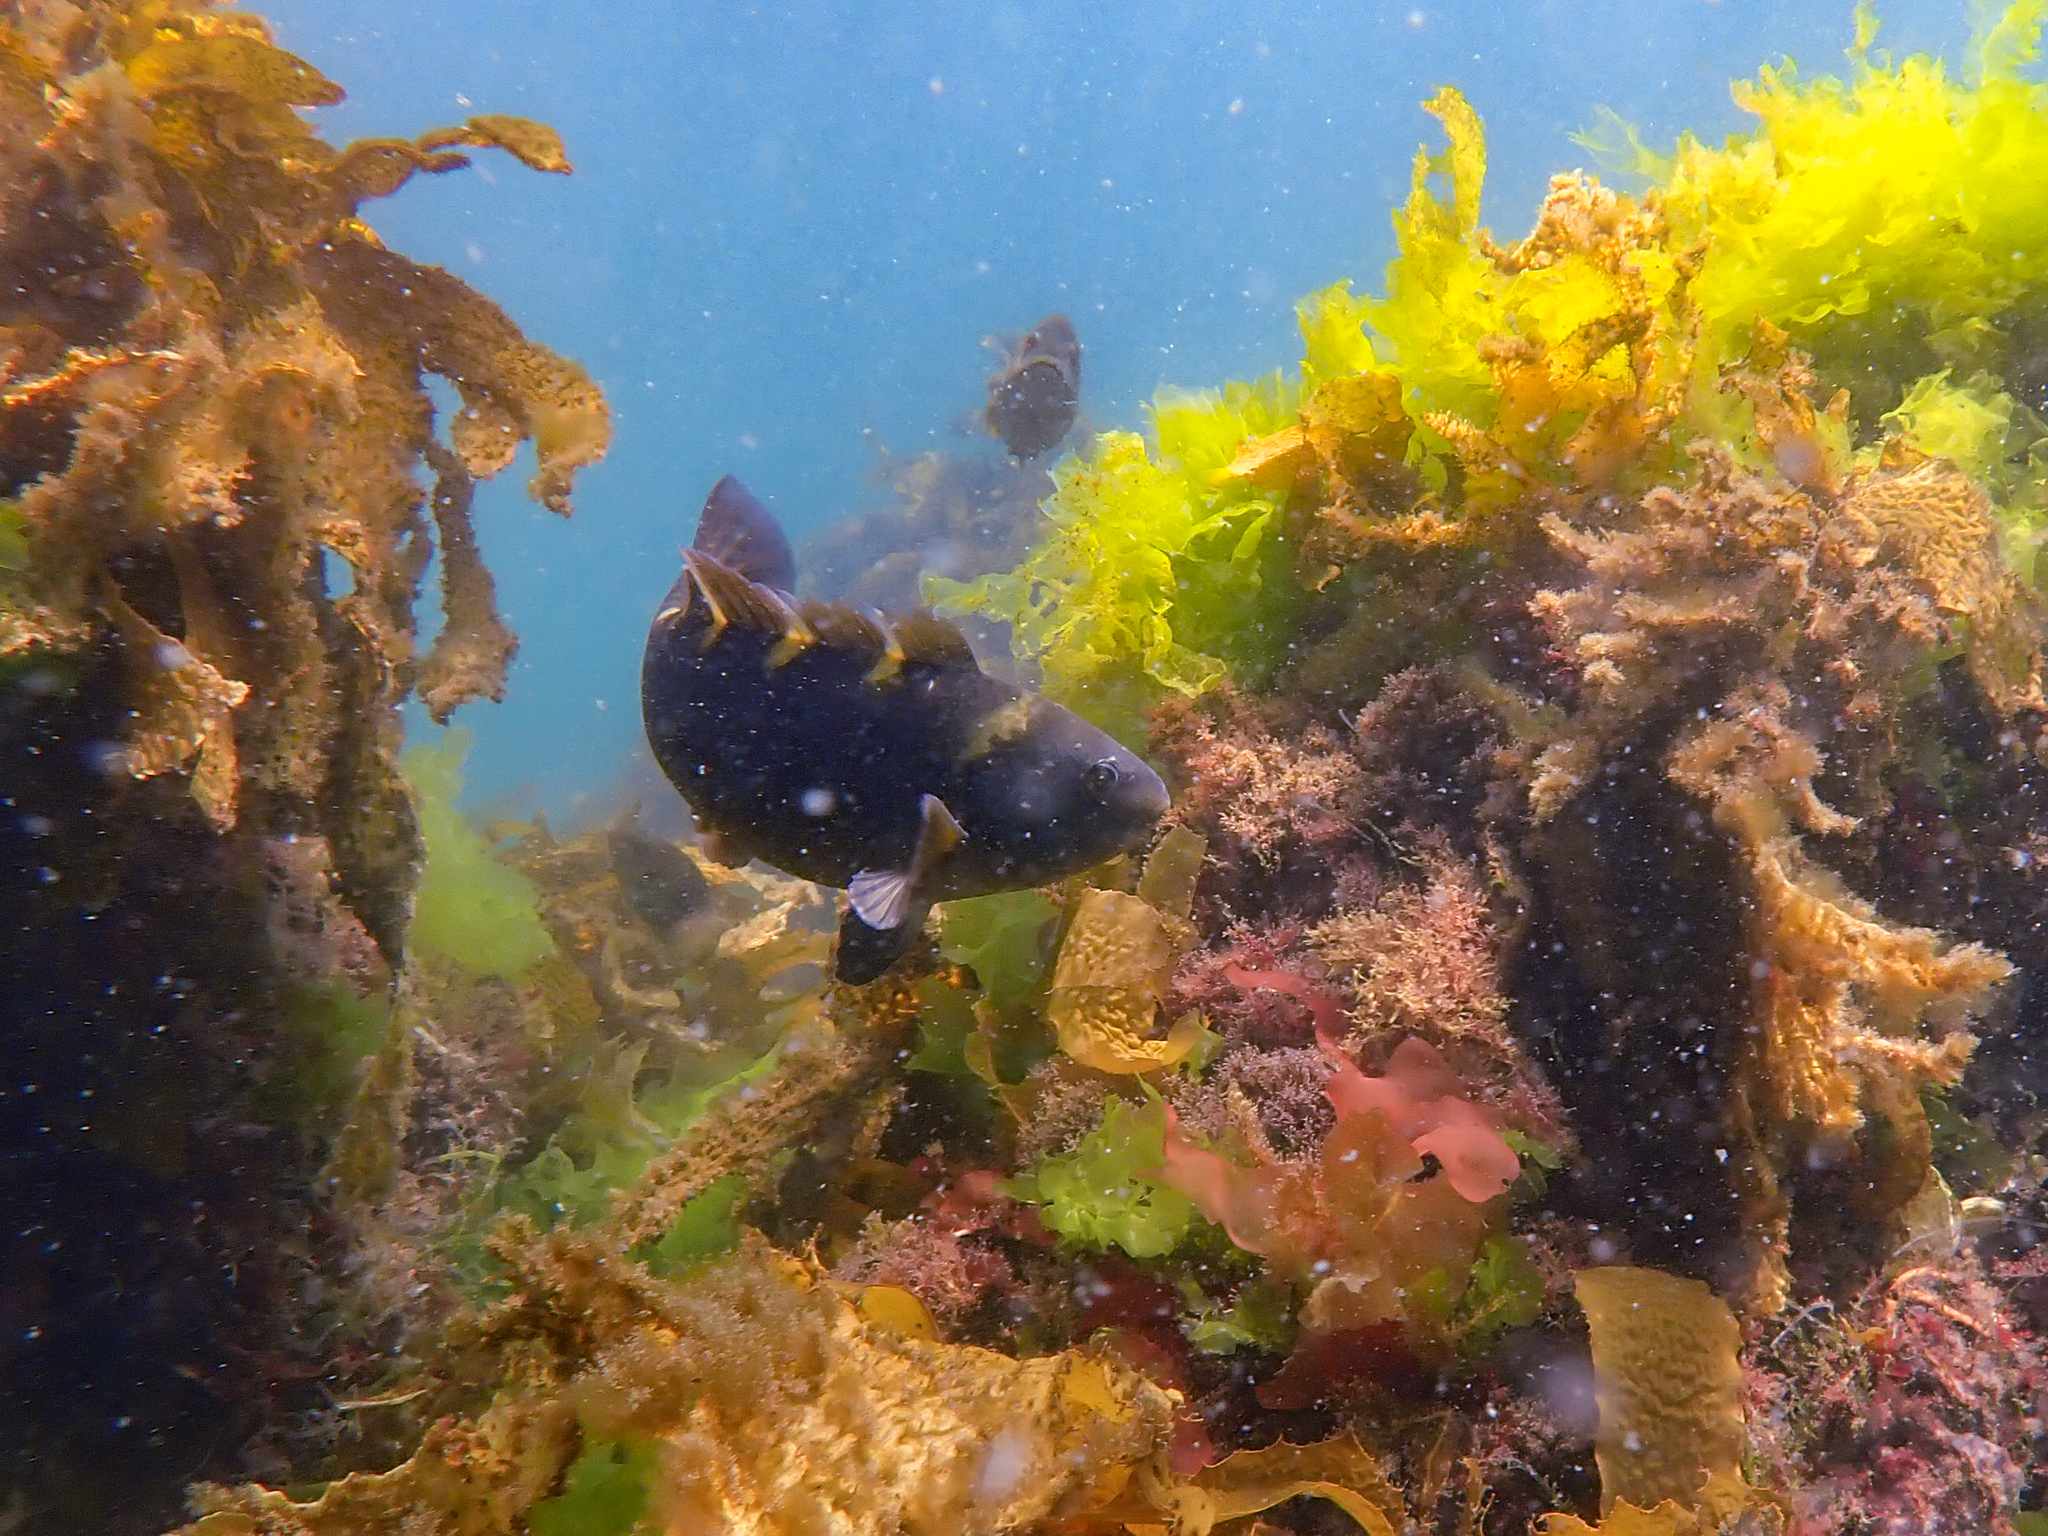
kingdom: Animalia
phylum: Chordata
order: Perciformes
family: Labridae
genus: Notolabrus
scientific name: Notolabrus fucicola
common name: Banded parrotfish
